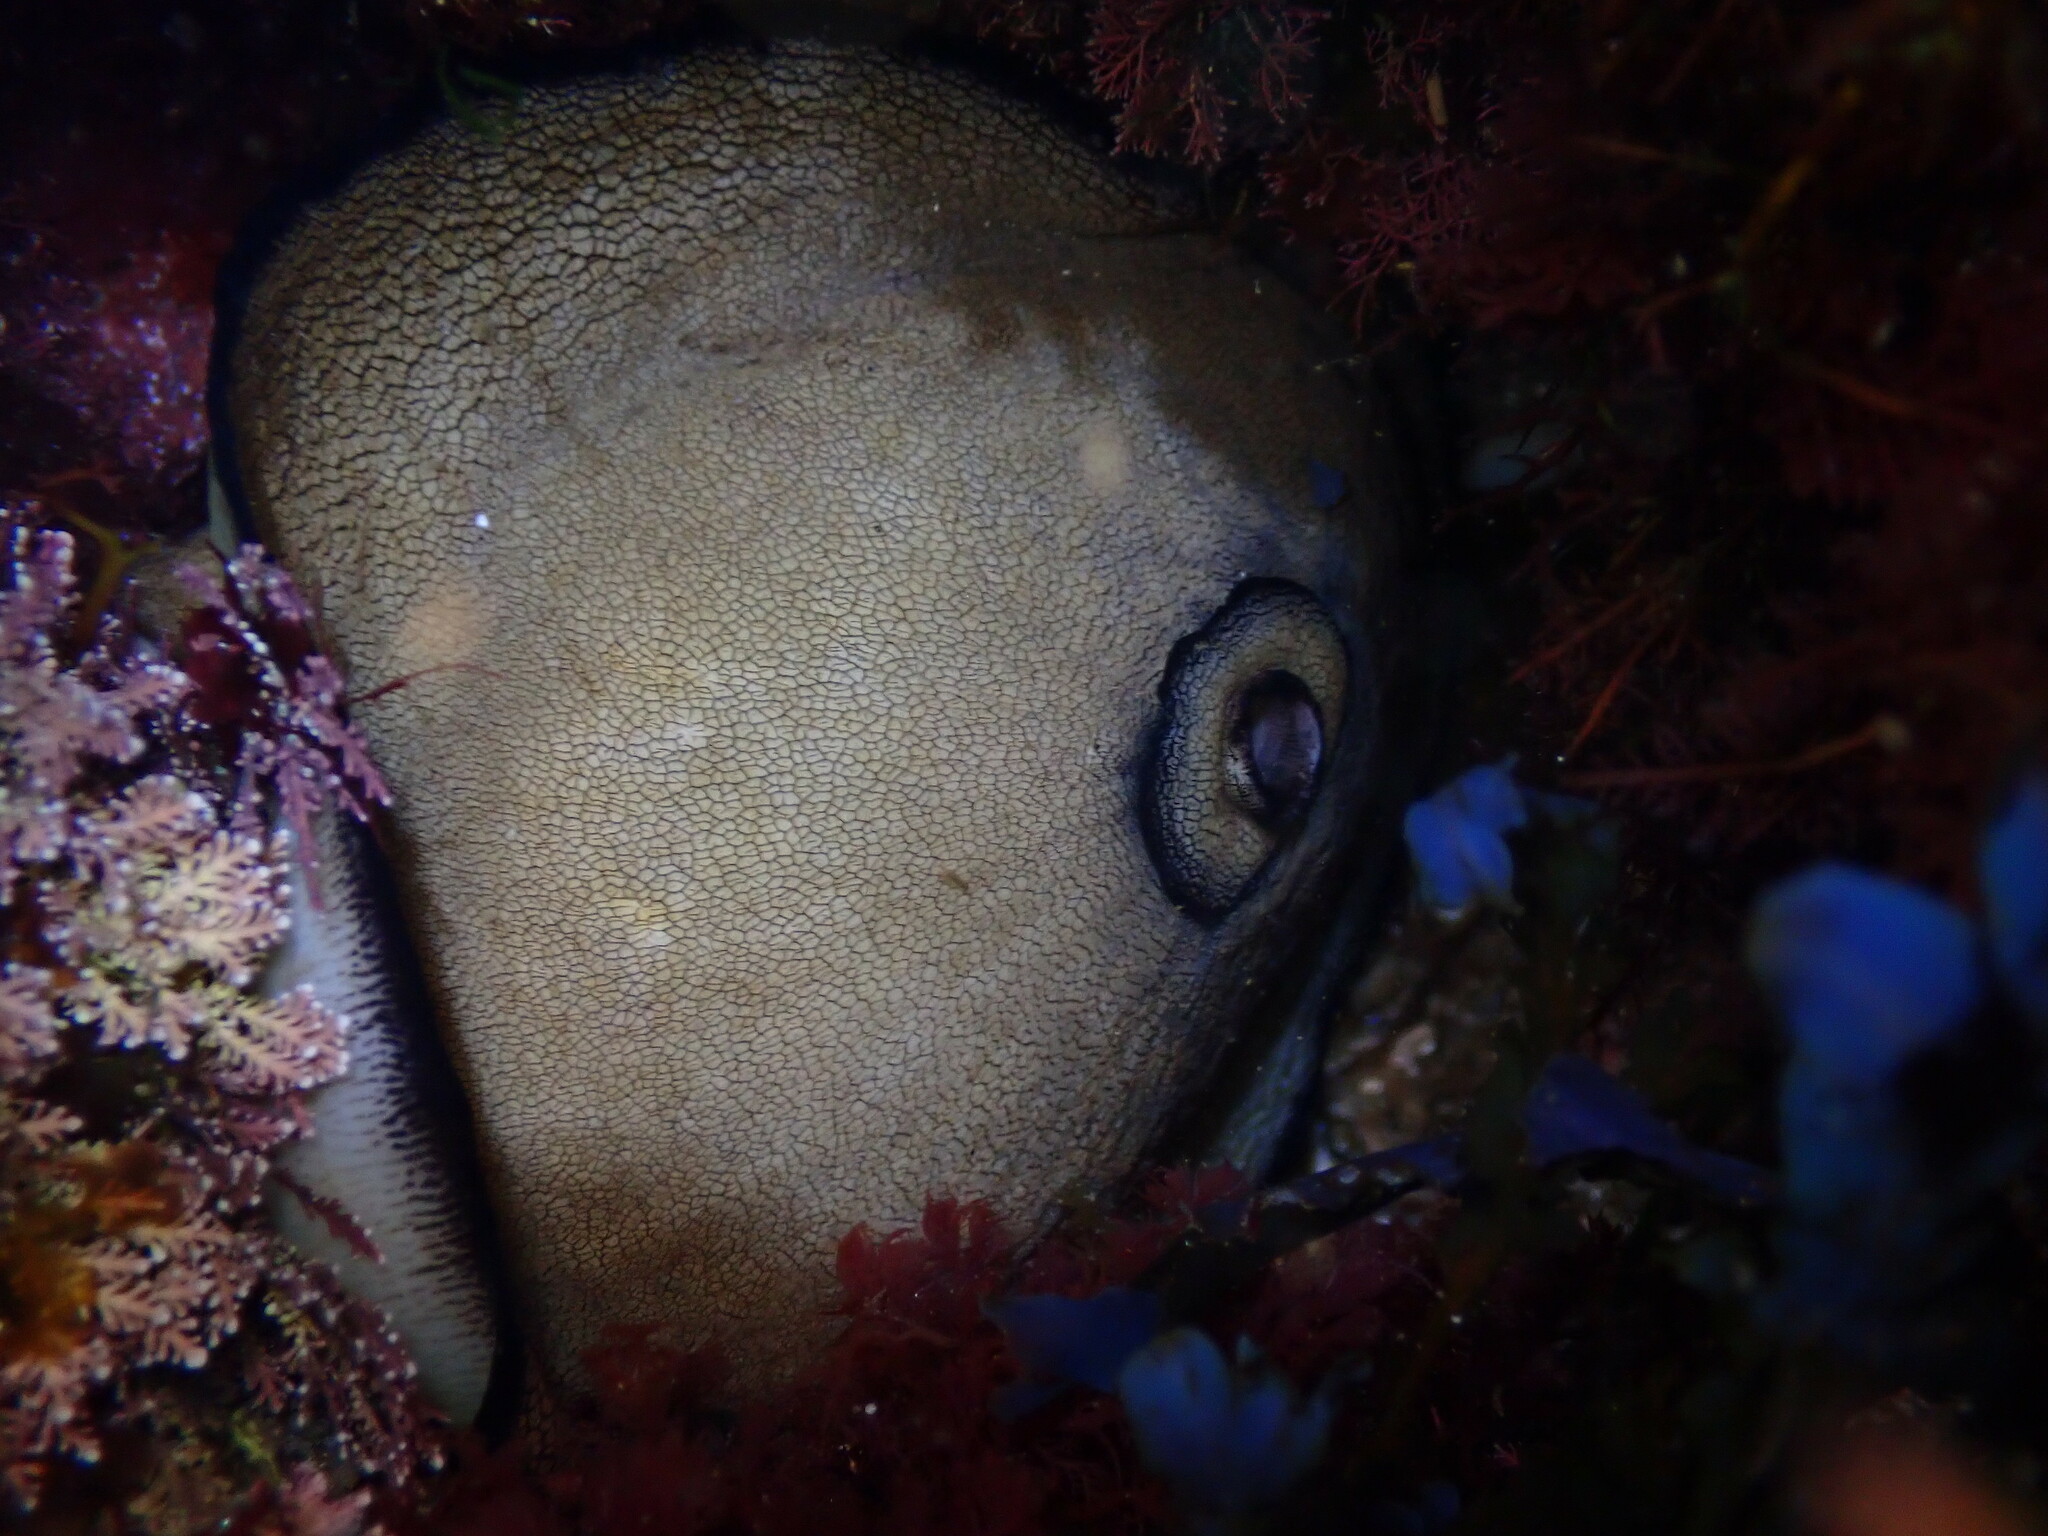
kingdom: Animalia
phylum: Mollusca
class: Gastropoda
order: Lepetellida
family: Fissurellidae
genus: Megathura
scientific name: Megathura crenulata
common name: Giant keyhole limpet
